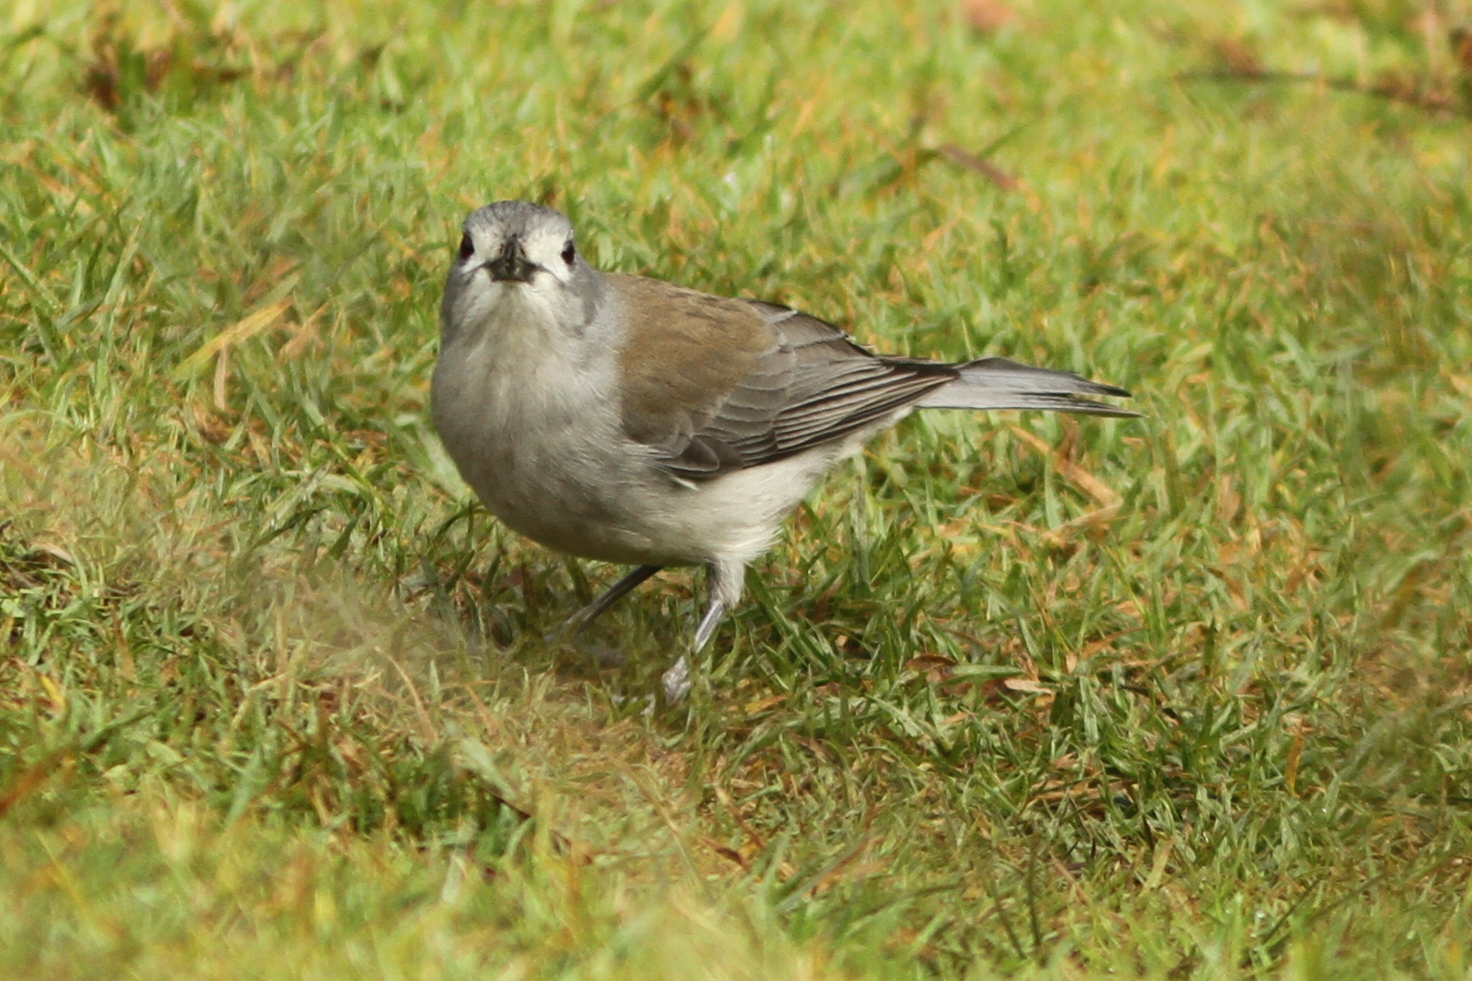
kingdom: Animalia
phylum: Chordata
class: Aves
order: Passeriformes
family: Pachycephalidae
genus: Colluricincla
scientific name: Colluricincla harmonica
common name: Grey shrikethrush
